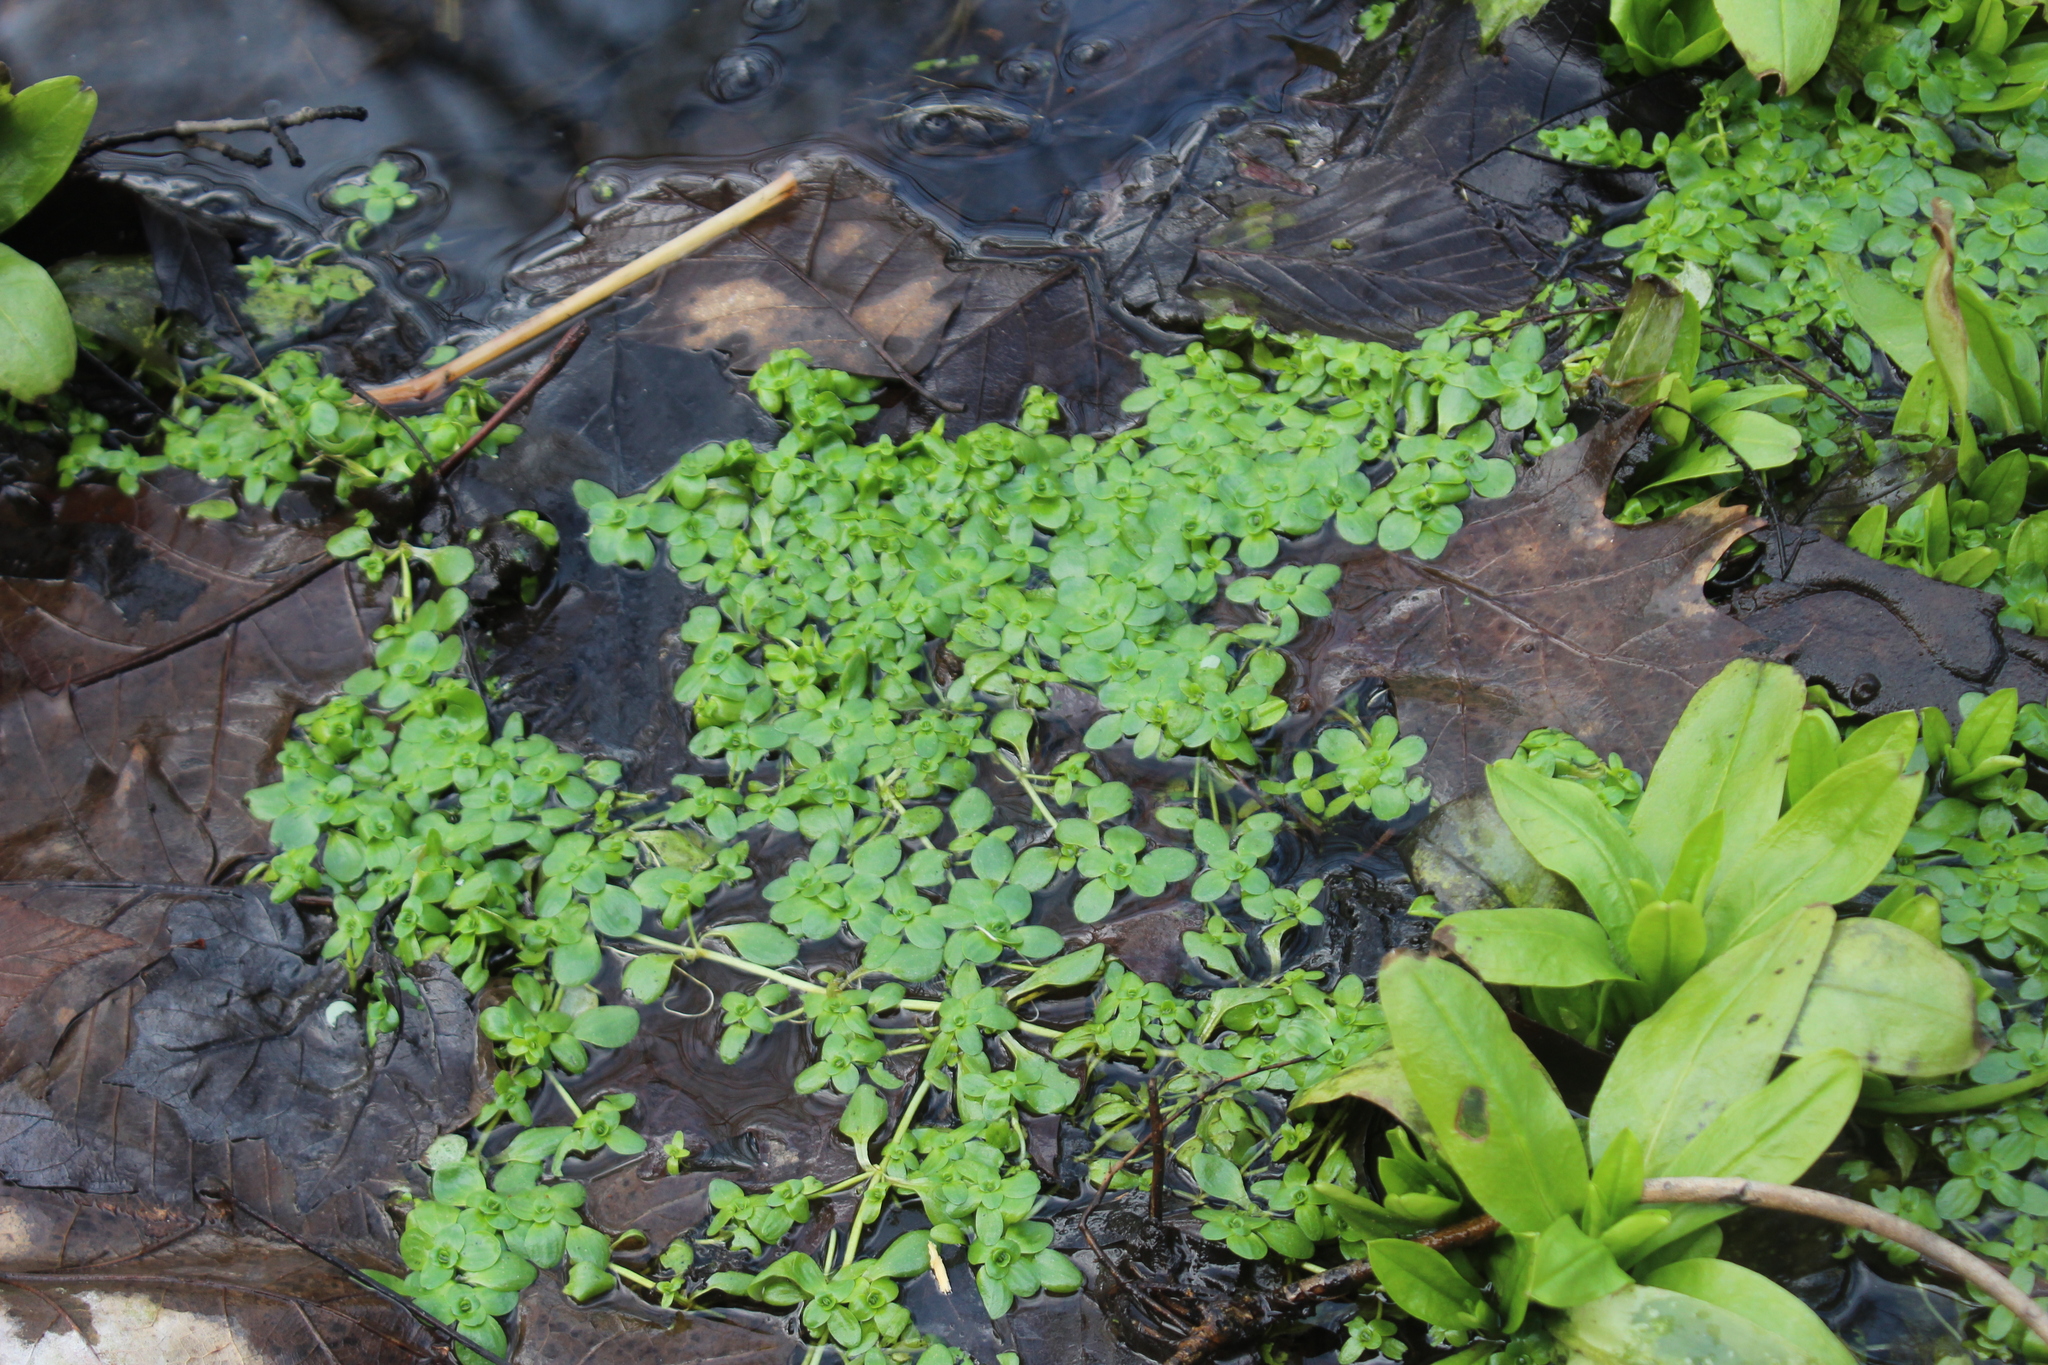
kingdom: Plantae
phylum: Tracheophyta
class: Magnoliopsida
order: Lamiales
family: Plantaginaceae
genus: Callitriche
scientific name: Callitriche
